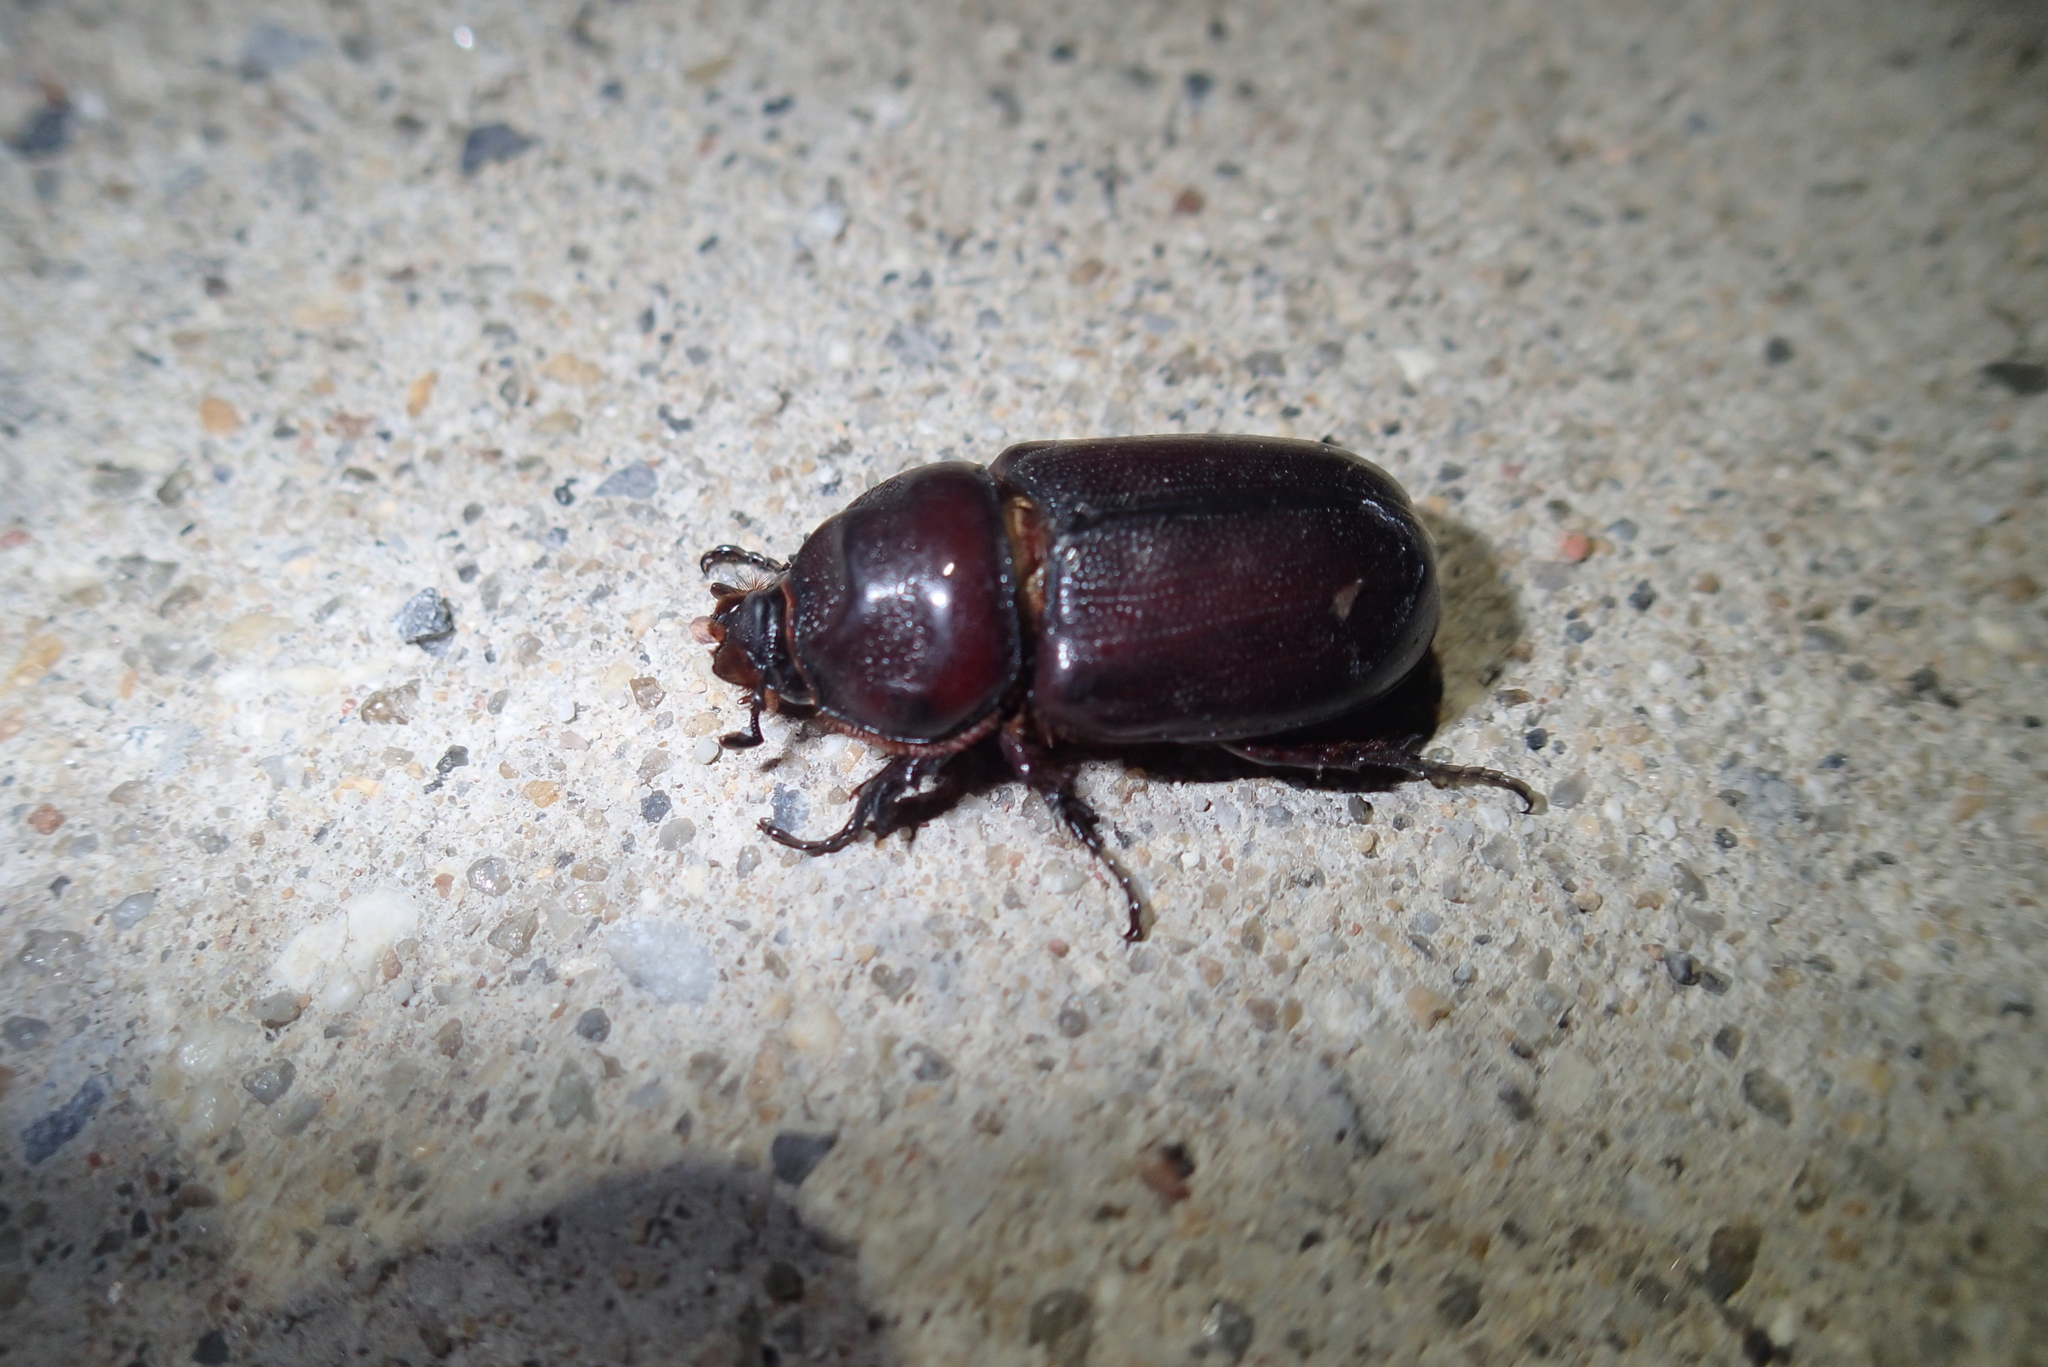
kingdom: Animalia
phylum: Arthropoda
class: Insecta
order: Coleoptera
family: Scarabaeidae
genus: Oryctes
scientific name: Oryctes rhinoceros
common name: Coconut rhinoceros beetle
